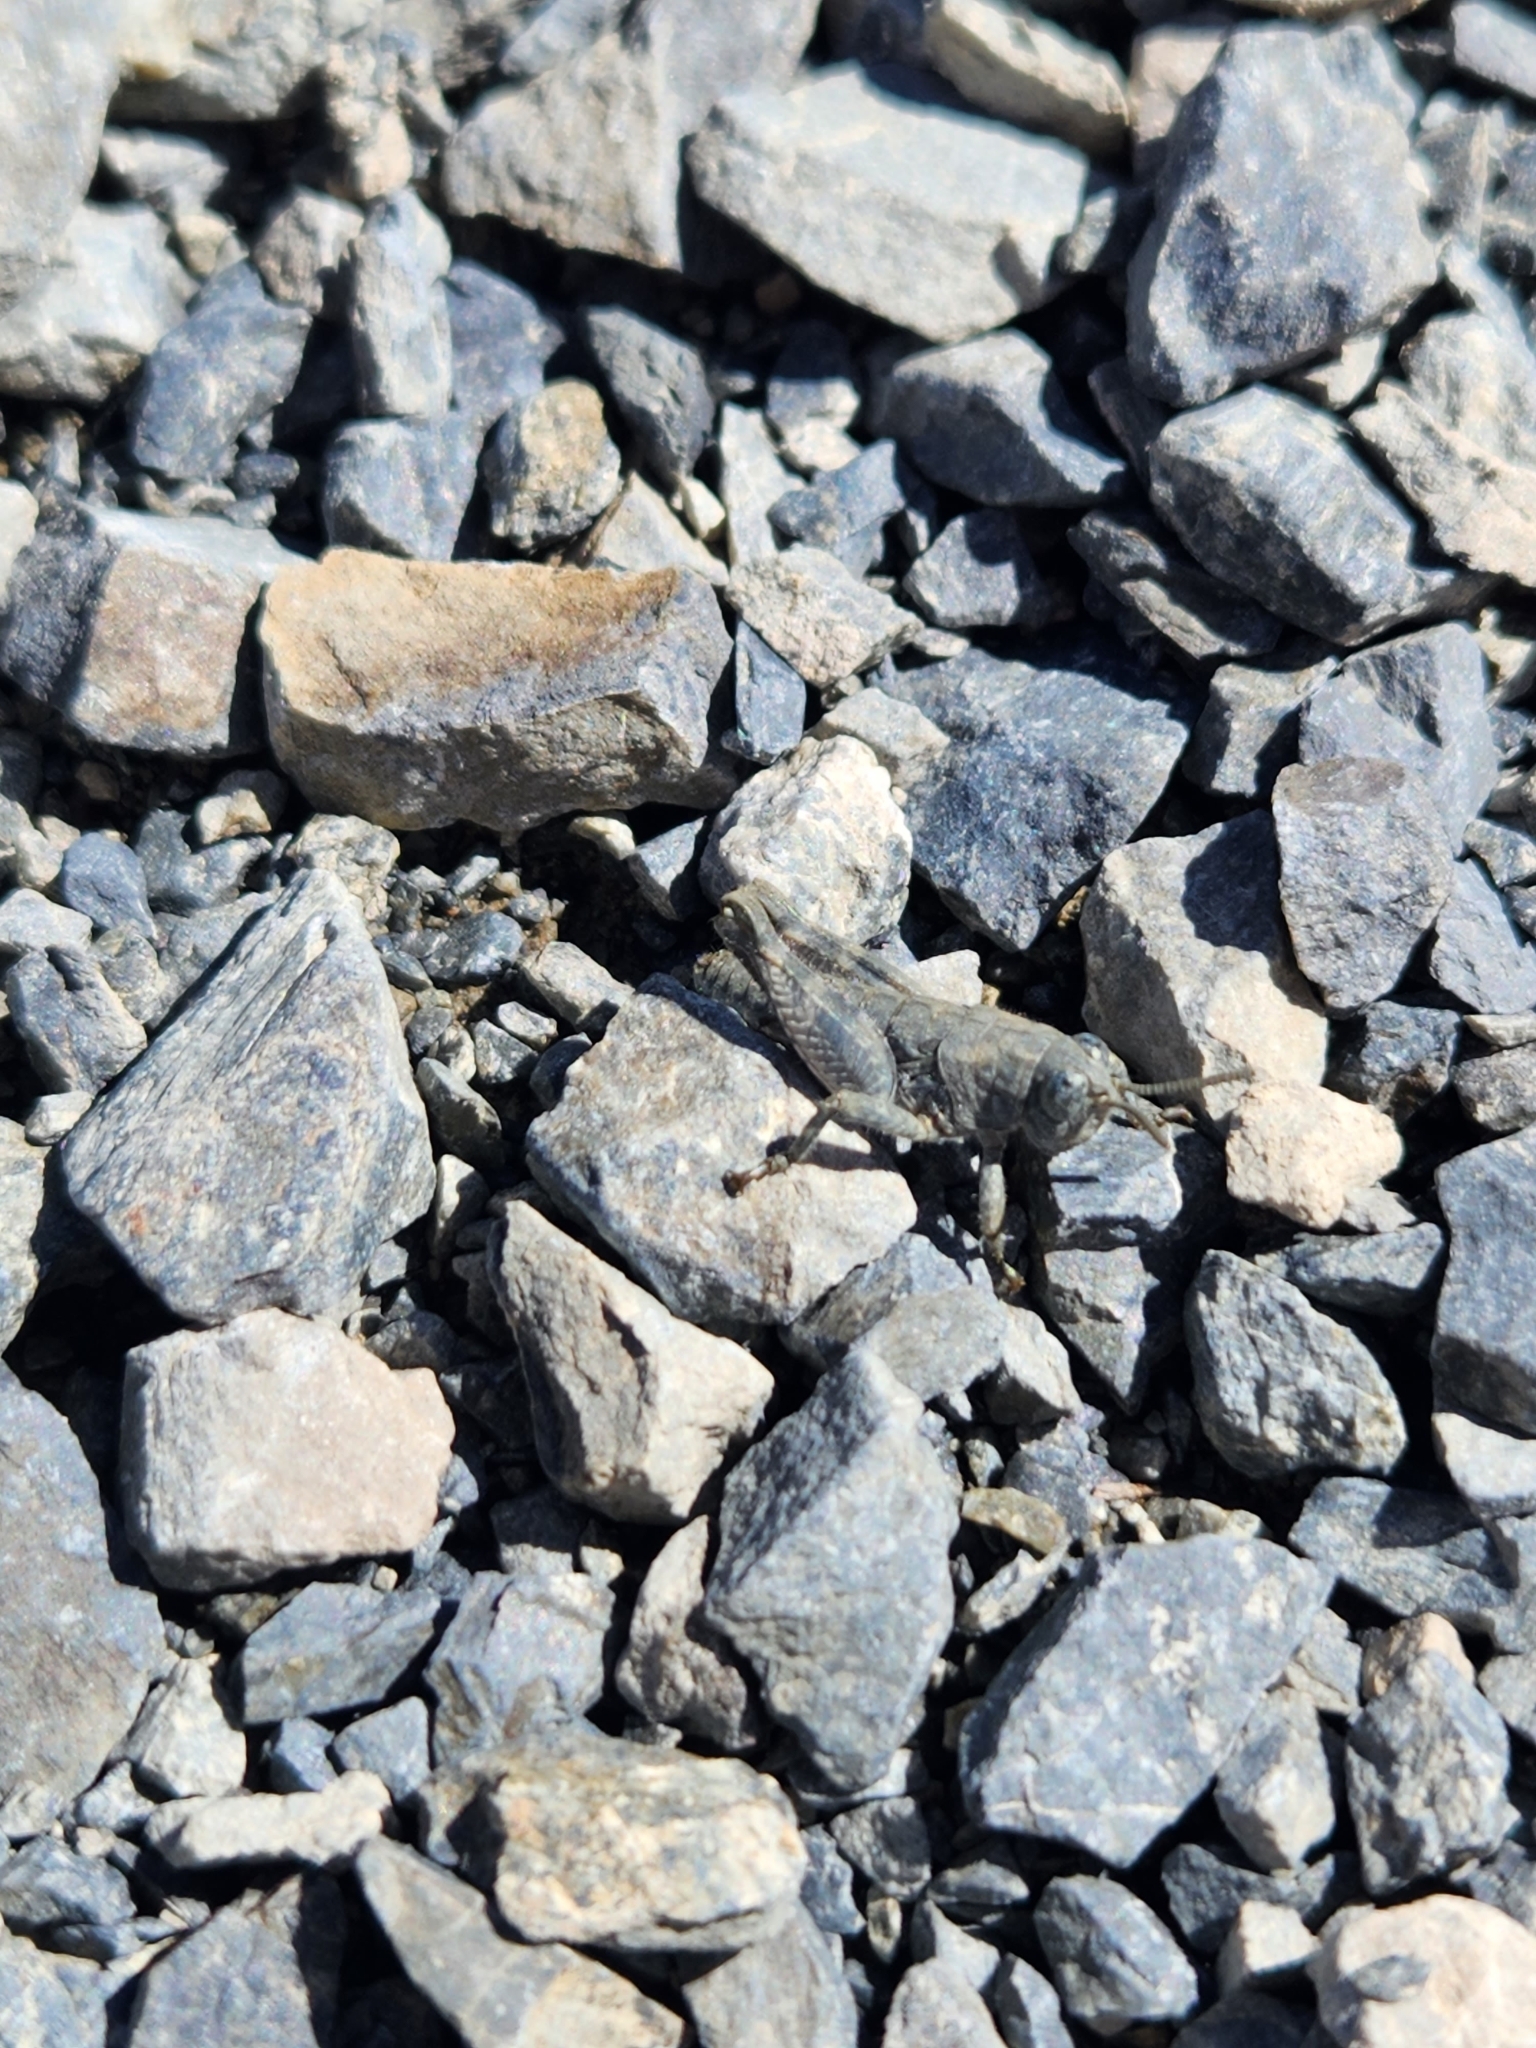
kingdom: Animalia
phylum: Arthropoda
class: Insecta
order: Orthoptera
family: Acrididae
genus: Sigaus
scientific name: Sigaus
